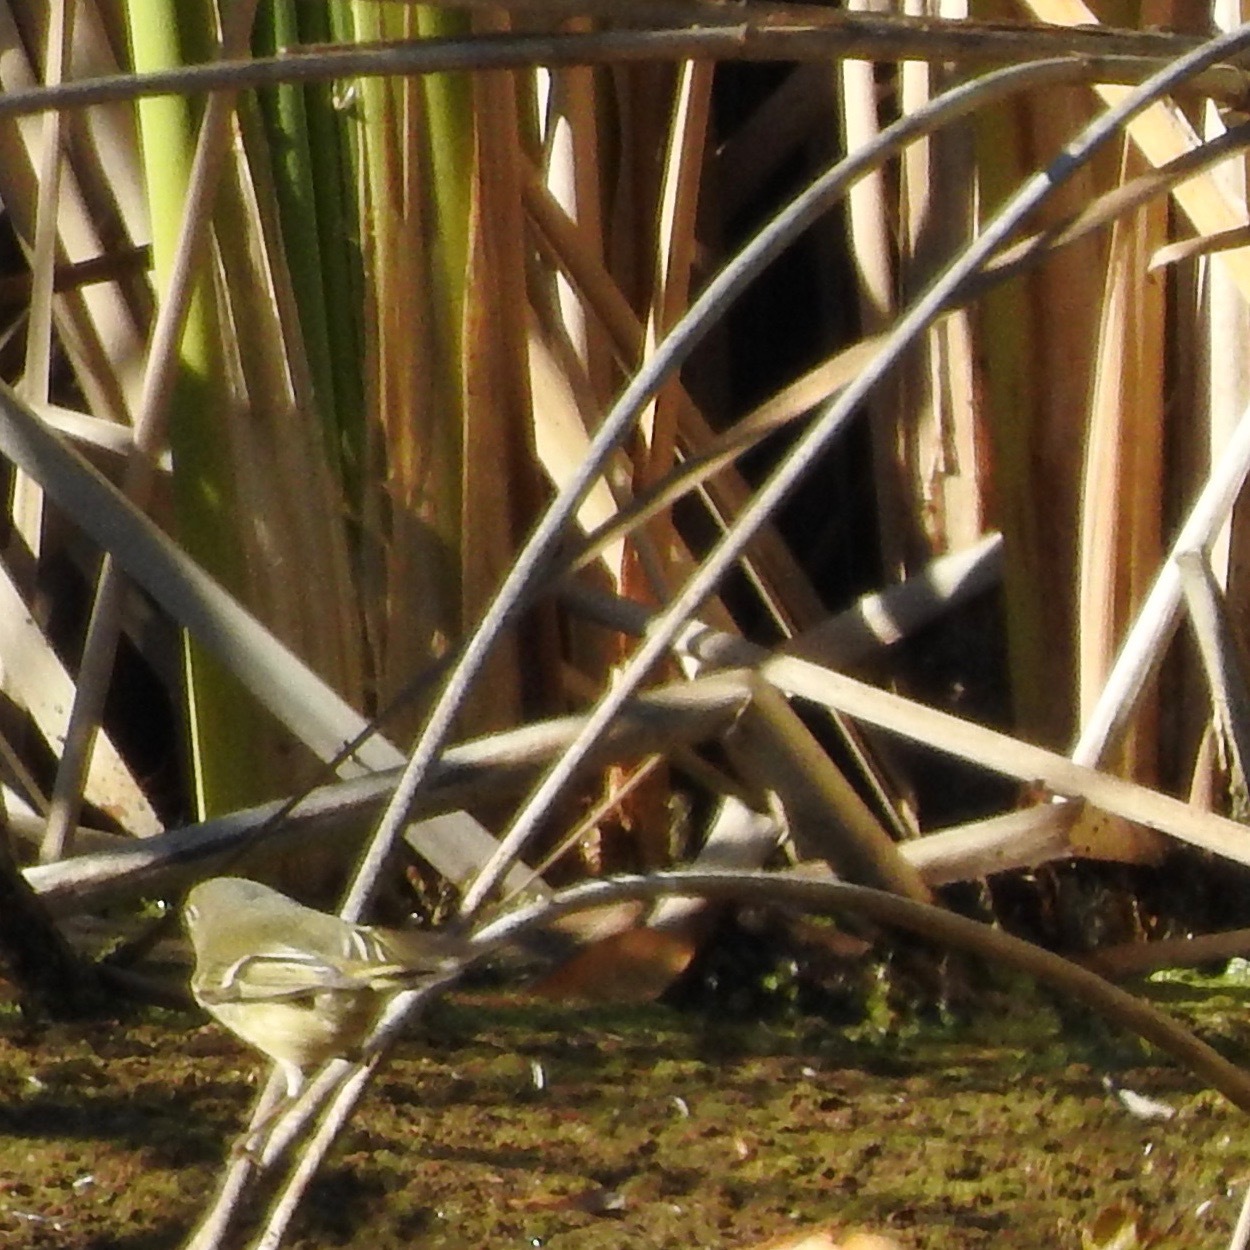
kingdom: Animalia
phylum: Chordata
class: Aves
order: Passeriformes
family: Regulidae
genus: Regulus
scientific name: Regulus calendula
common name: Ruby-crowned kinglet
